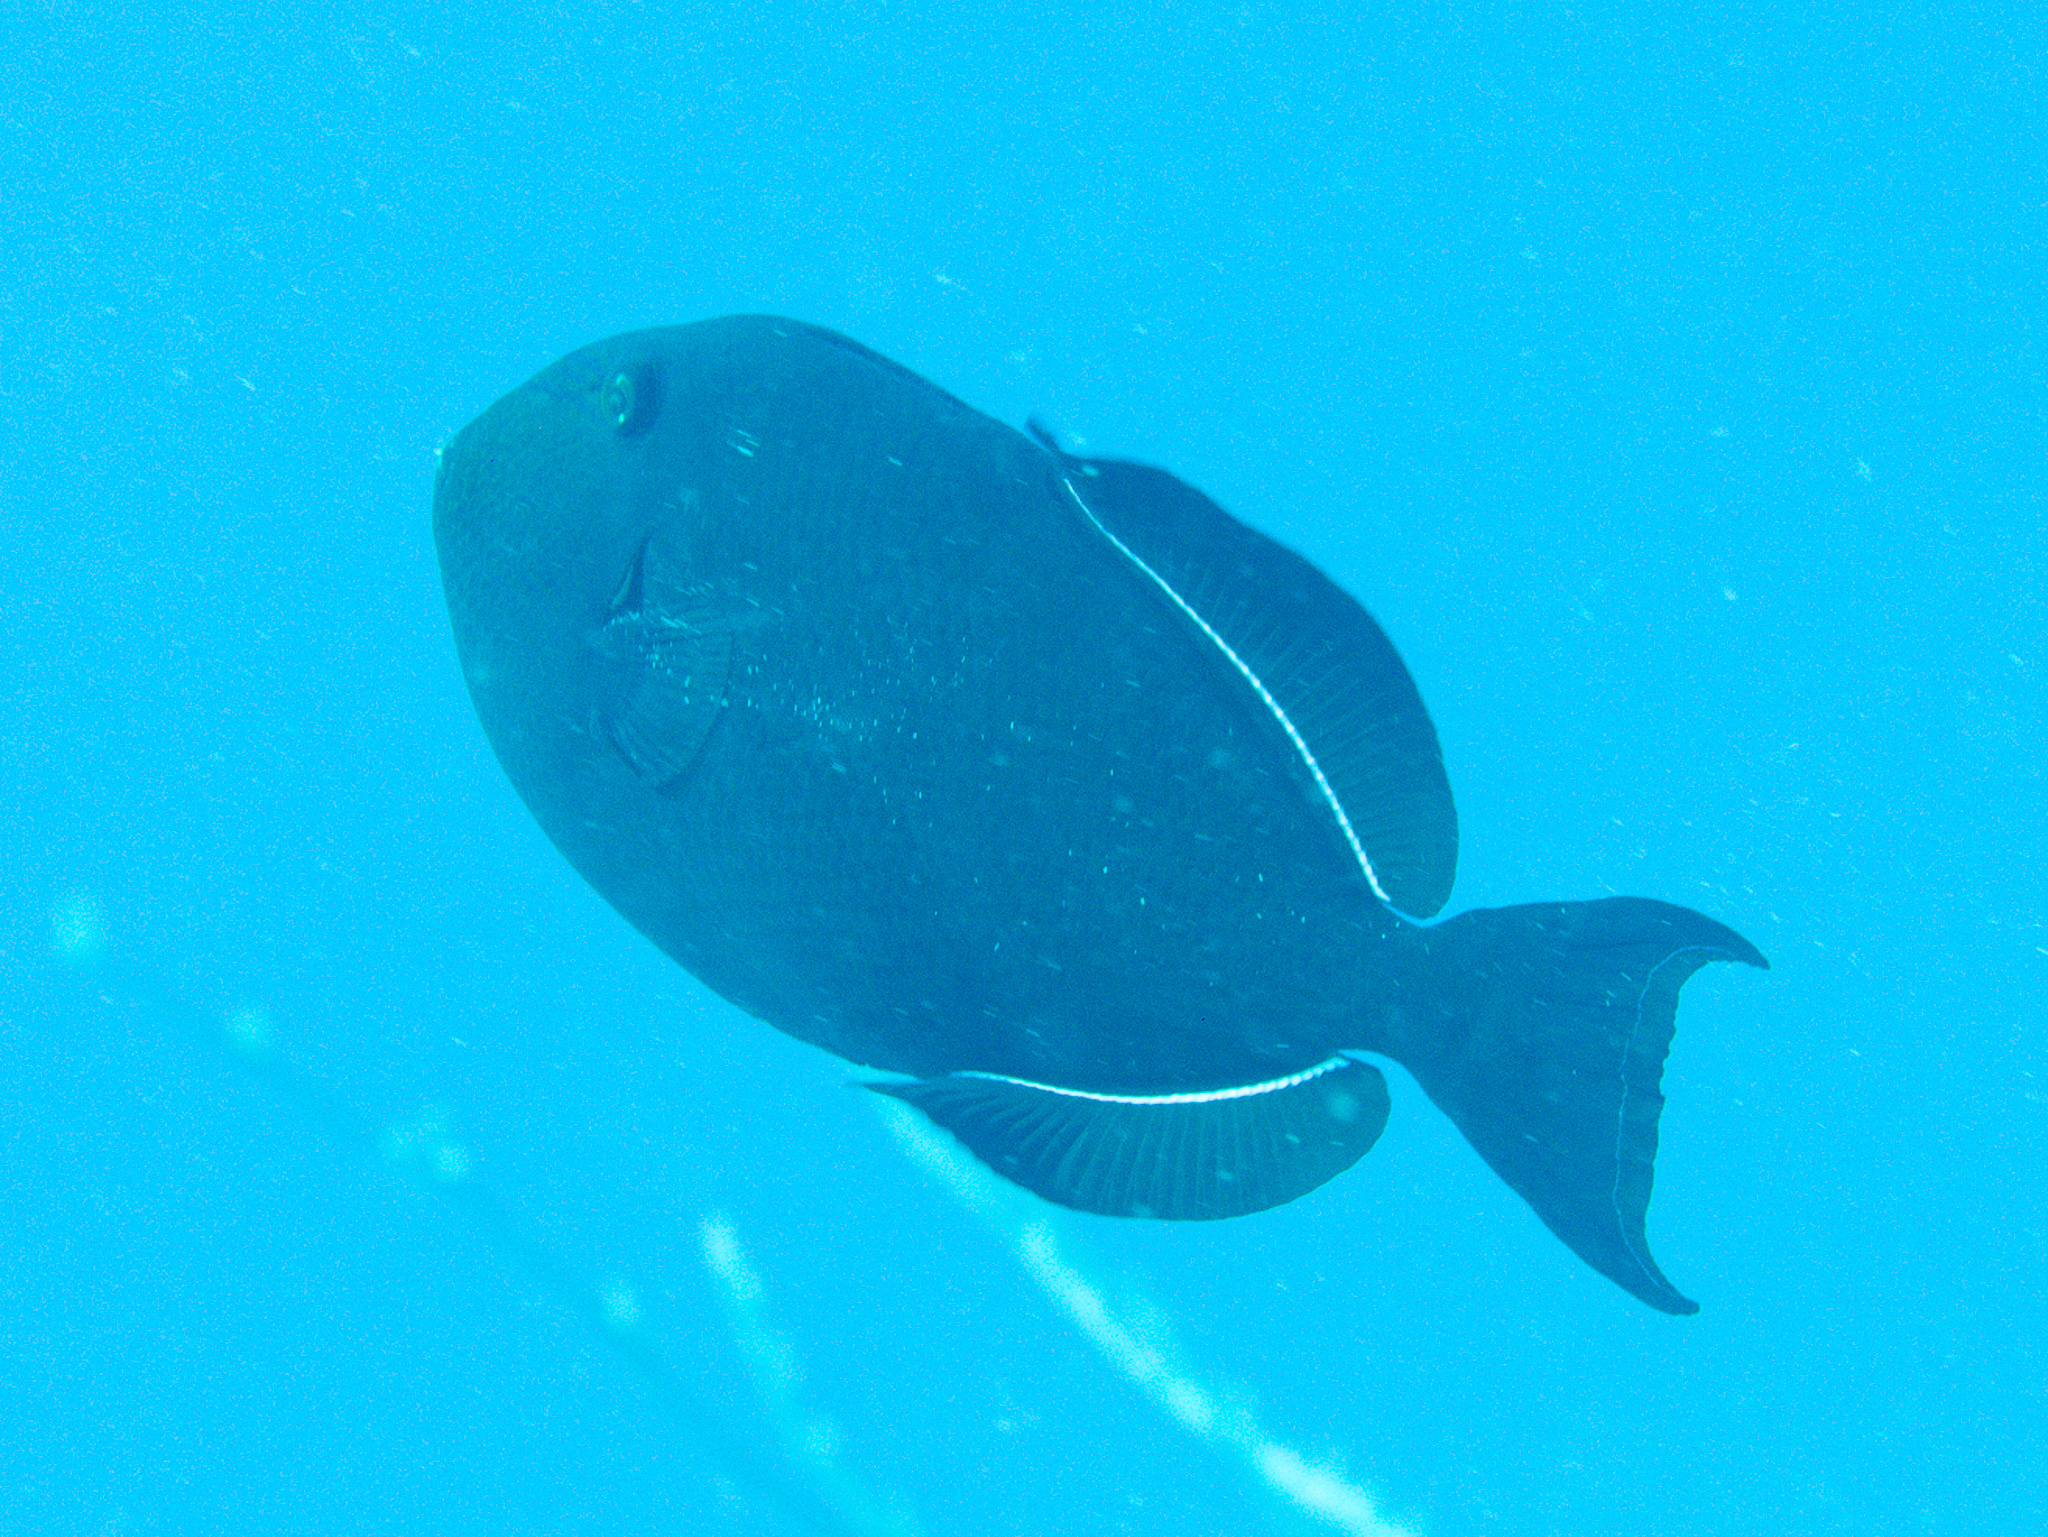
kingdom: Animalia
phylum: Chordata
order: Tetraodontiformes
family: Balistidae
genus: Melichthys
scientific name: Melichthys niger
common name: Black durgon
